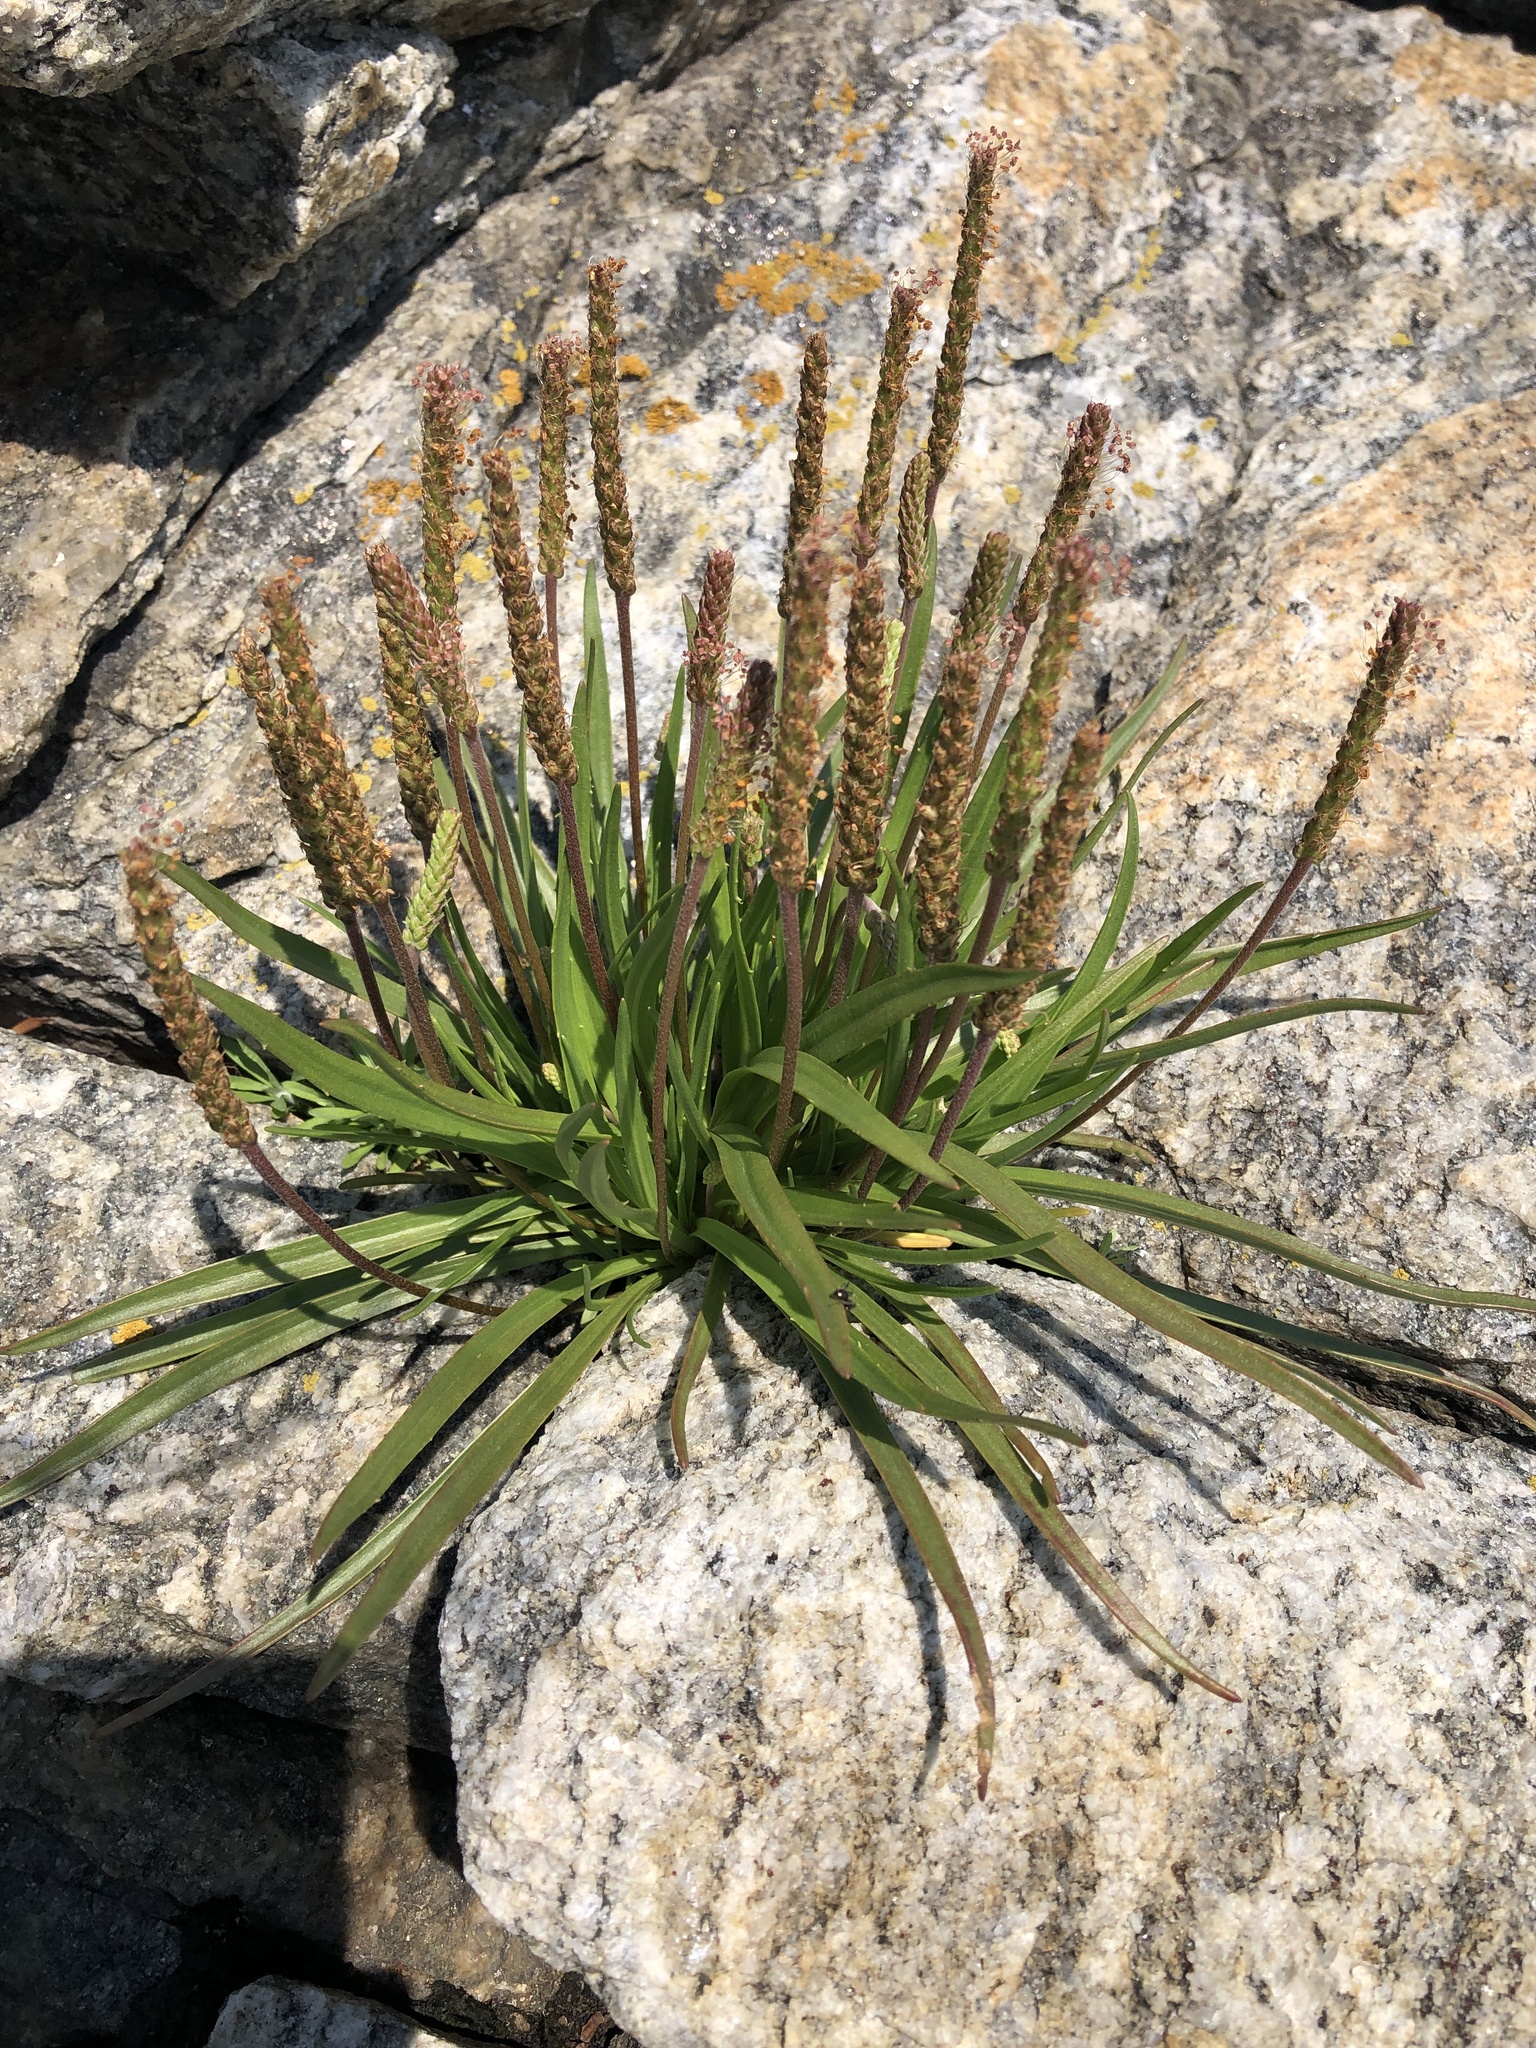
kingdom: Plantae
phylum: Tracheophyta
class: Magnoliopsida
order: Lamiales
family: Plantaginaceae
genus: Plantago
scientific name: Plantago maritima
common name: Sea plantain
